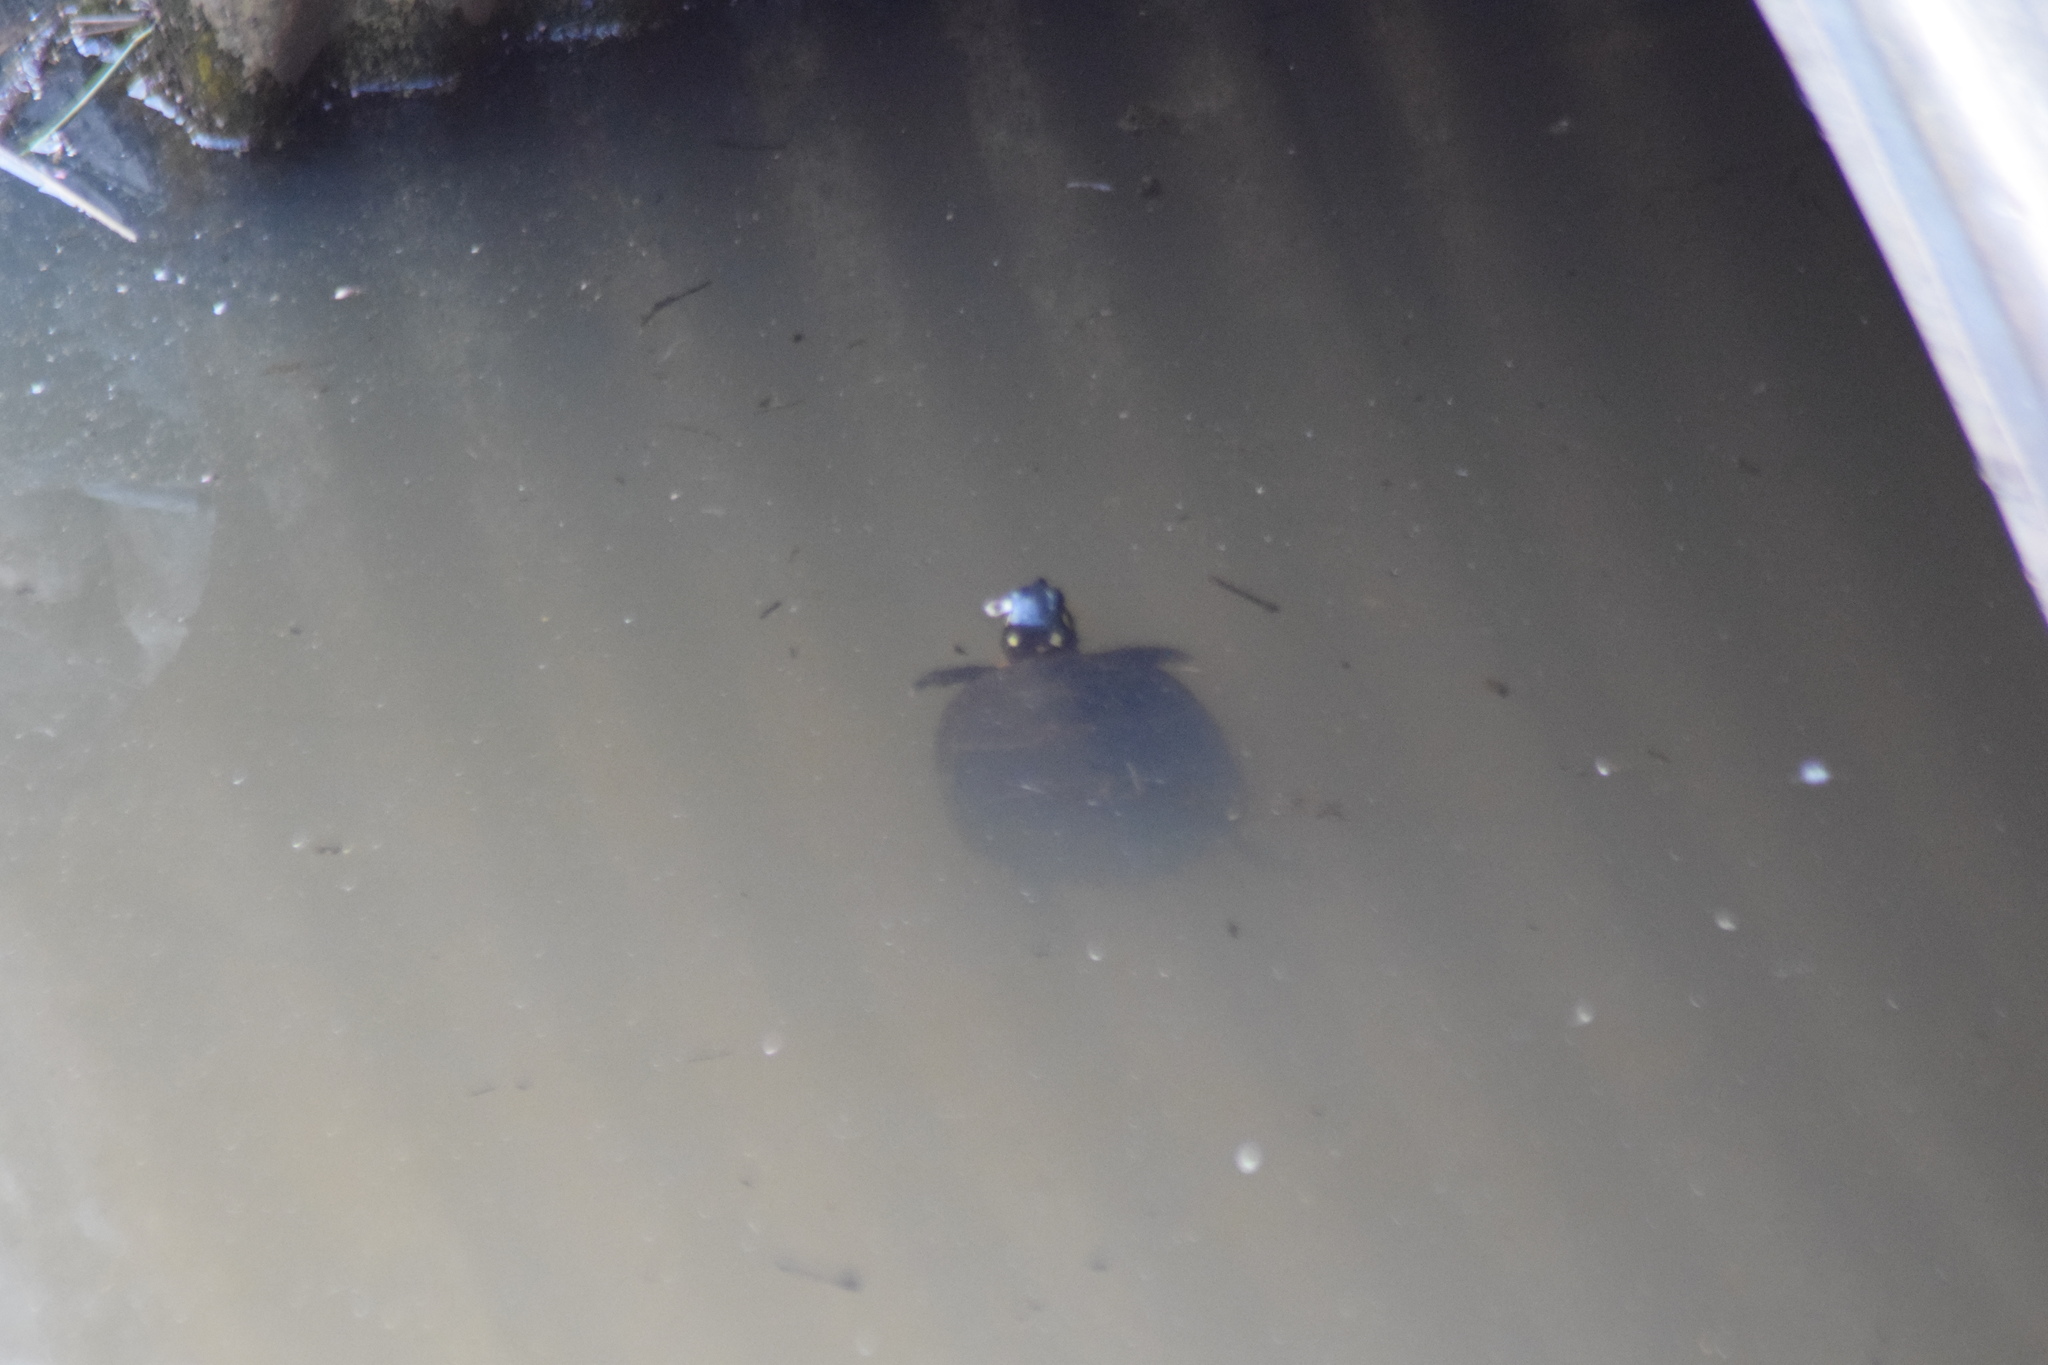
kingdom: Animalia
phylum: Chordata
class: Testudines
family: Emydidae
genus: Chrysemys
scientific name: Chrysemys picta
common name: Painted turtle
